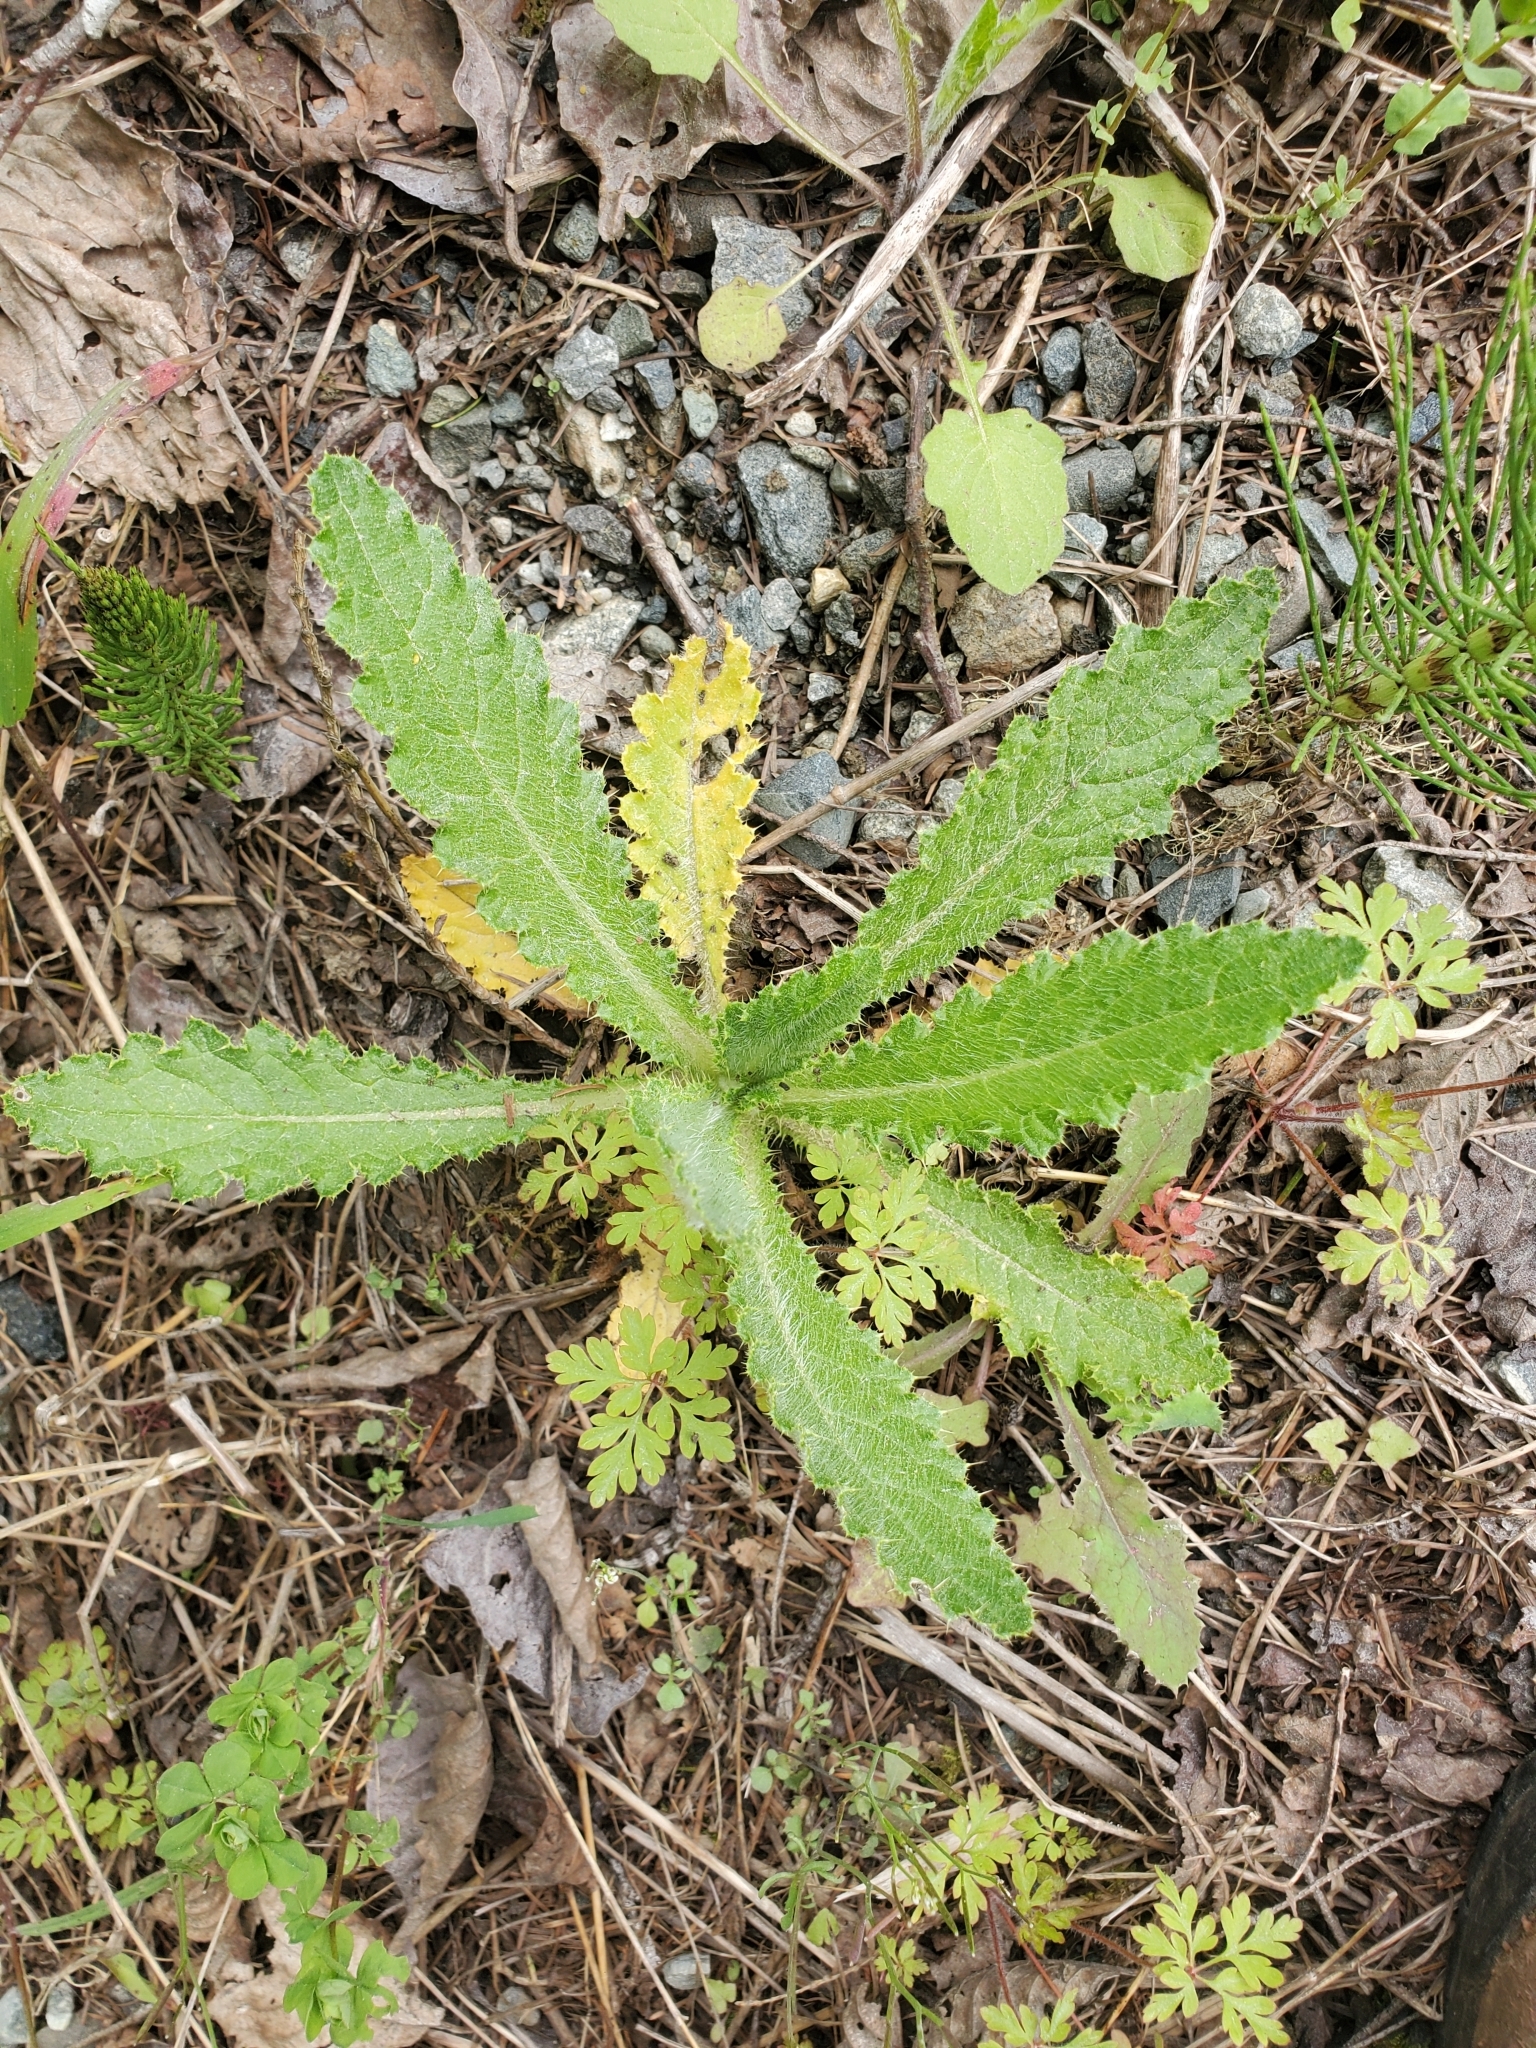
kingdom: Plantae
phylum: Tracheophyta
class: Magnoliopsida
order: Asterales
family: Asteraceae
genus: Cirsium
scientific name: Cirsium brevistylum
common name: Indian thistle
